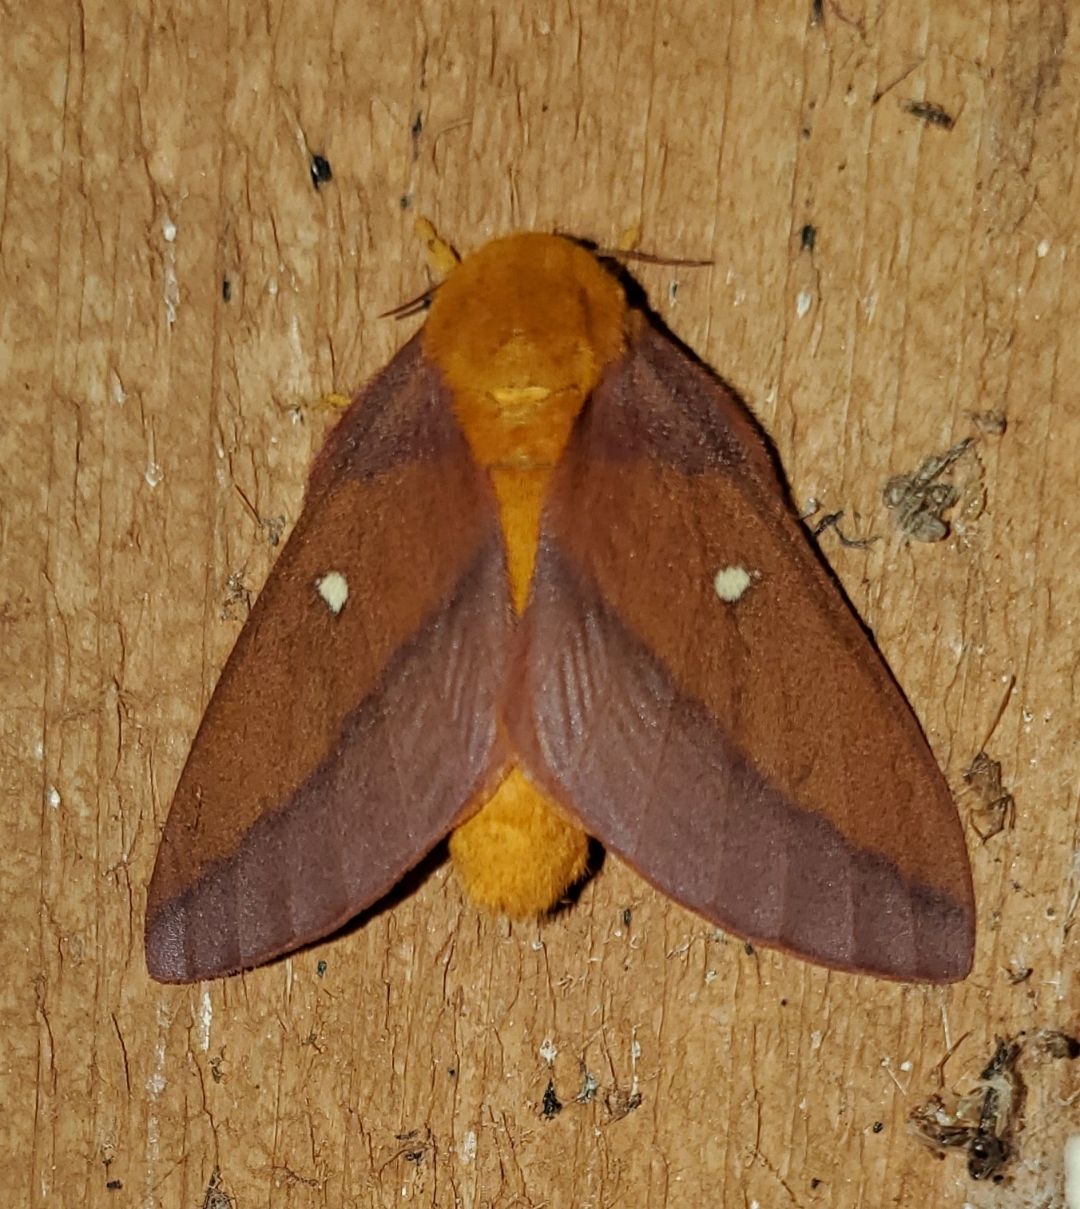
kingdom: Animalia
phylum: Arthropoda
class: Insecta
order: Lepidoptera
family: Saturniidae
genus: Anisota
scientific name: Anisota virginiensis
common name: Pink striped oakworm moth
